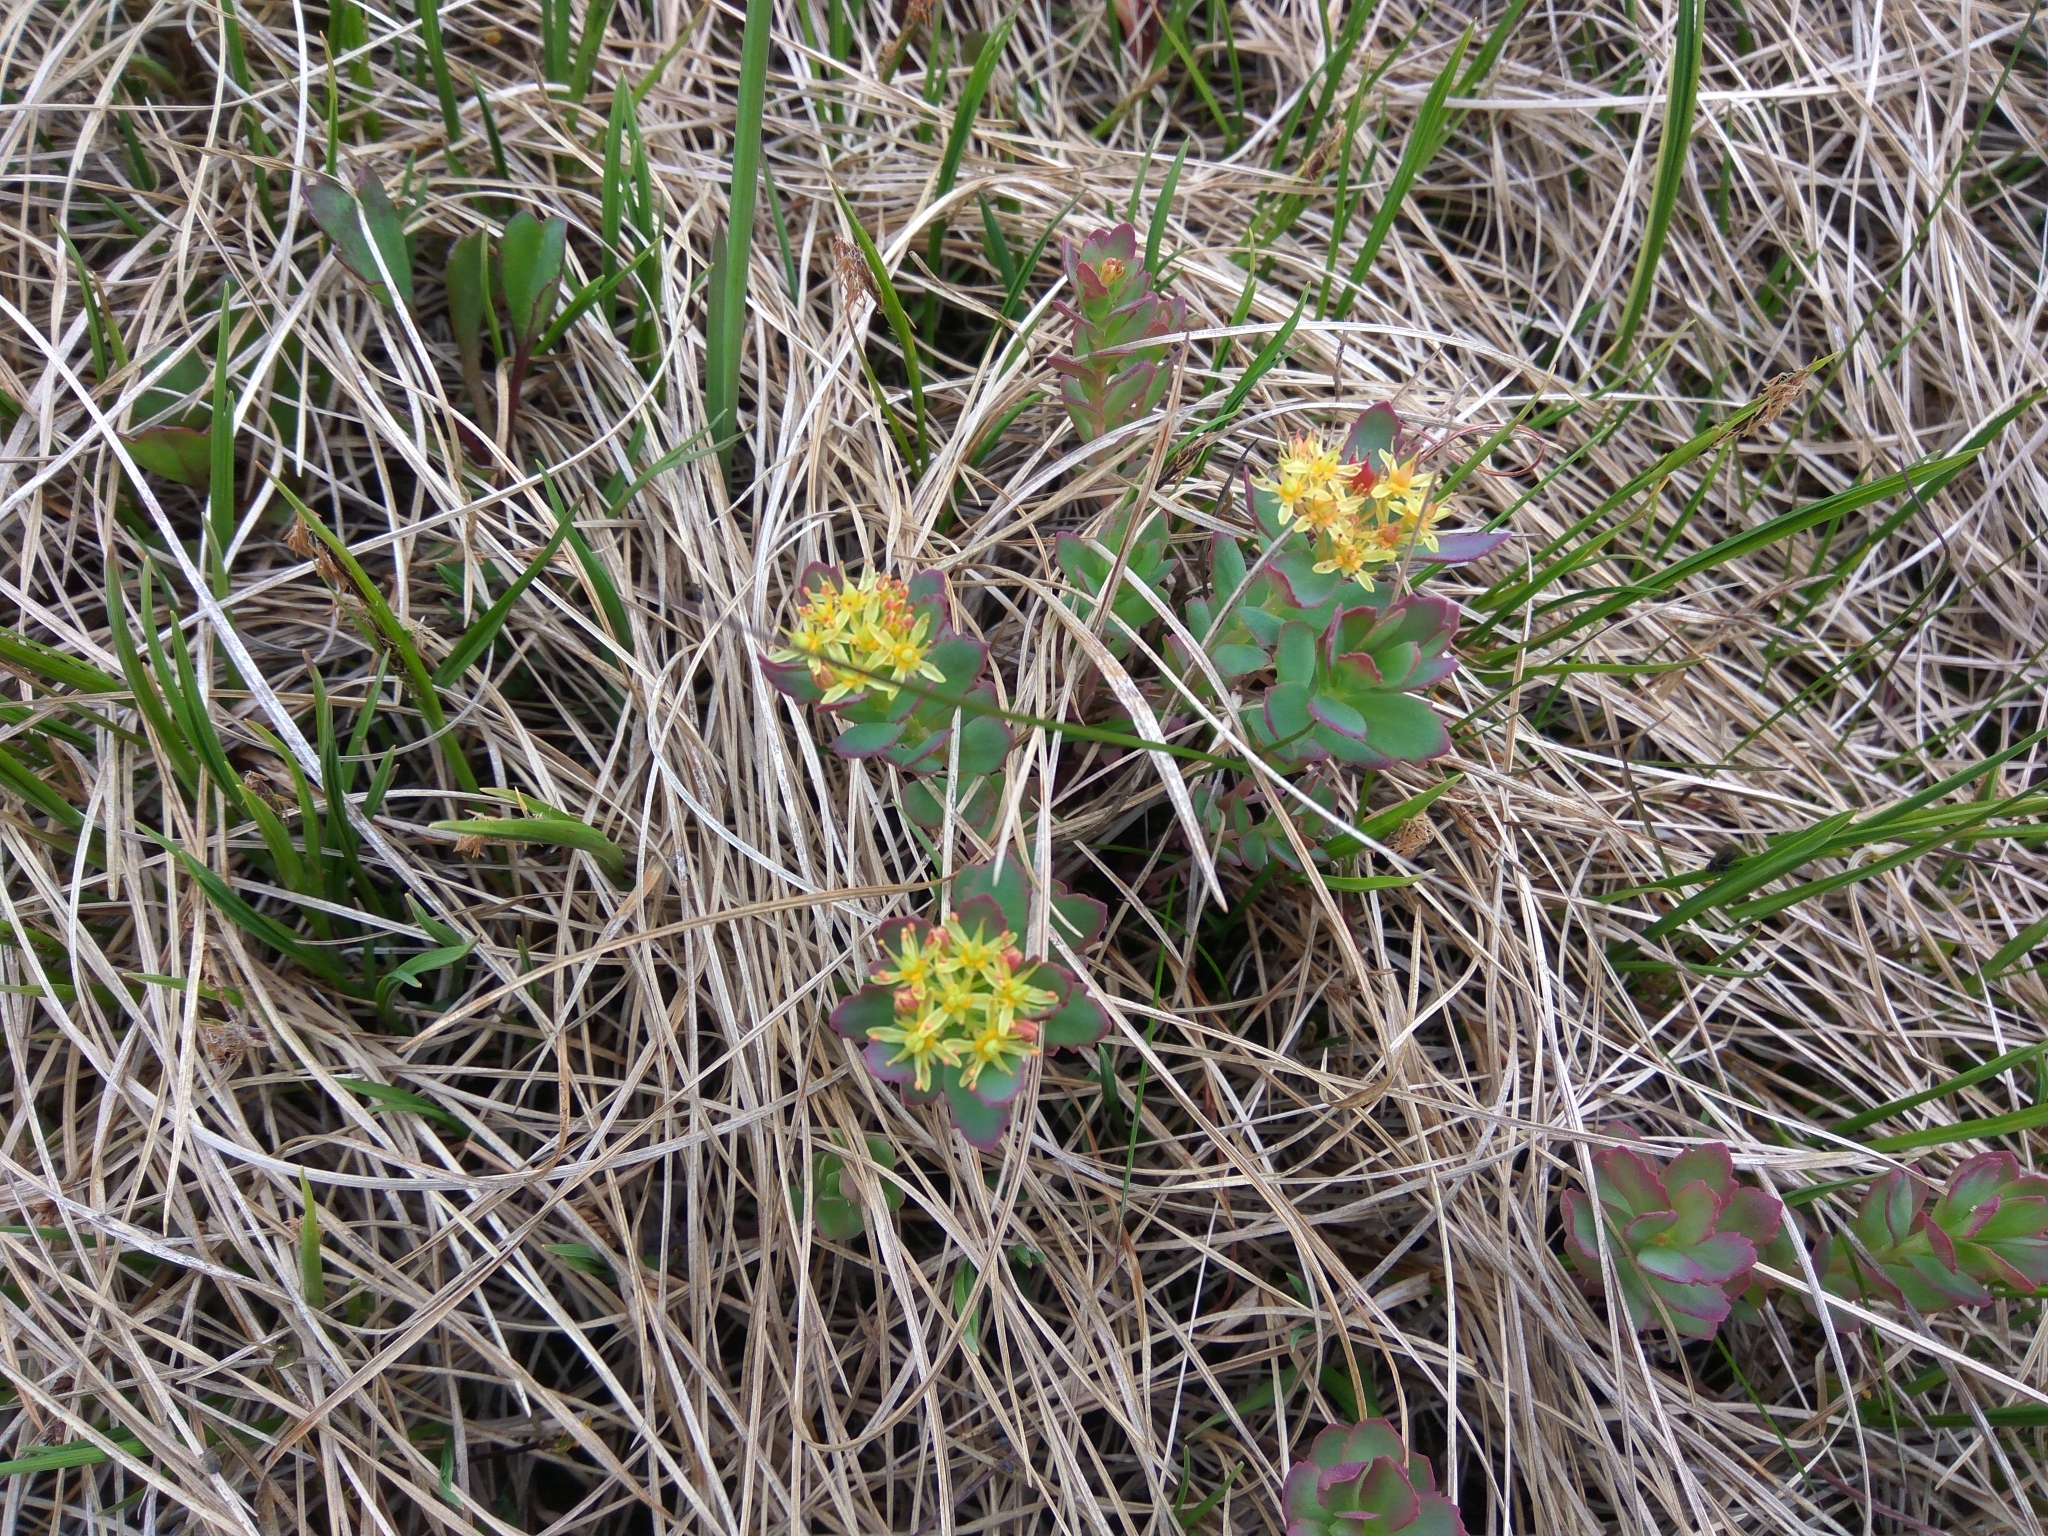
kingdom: Plantae
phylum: Tracheophyta
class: Magnoliopsida
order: Saxifragales
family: Crassulaceae
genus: Rhodiola
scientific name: Rhodiola rosea
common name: Roseroot
